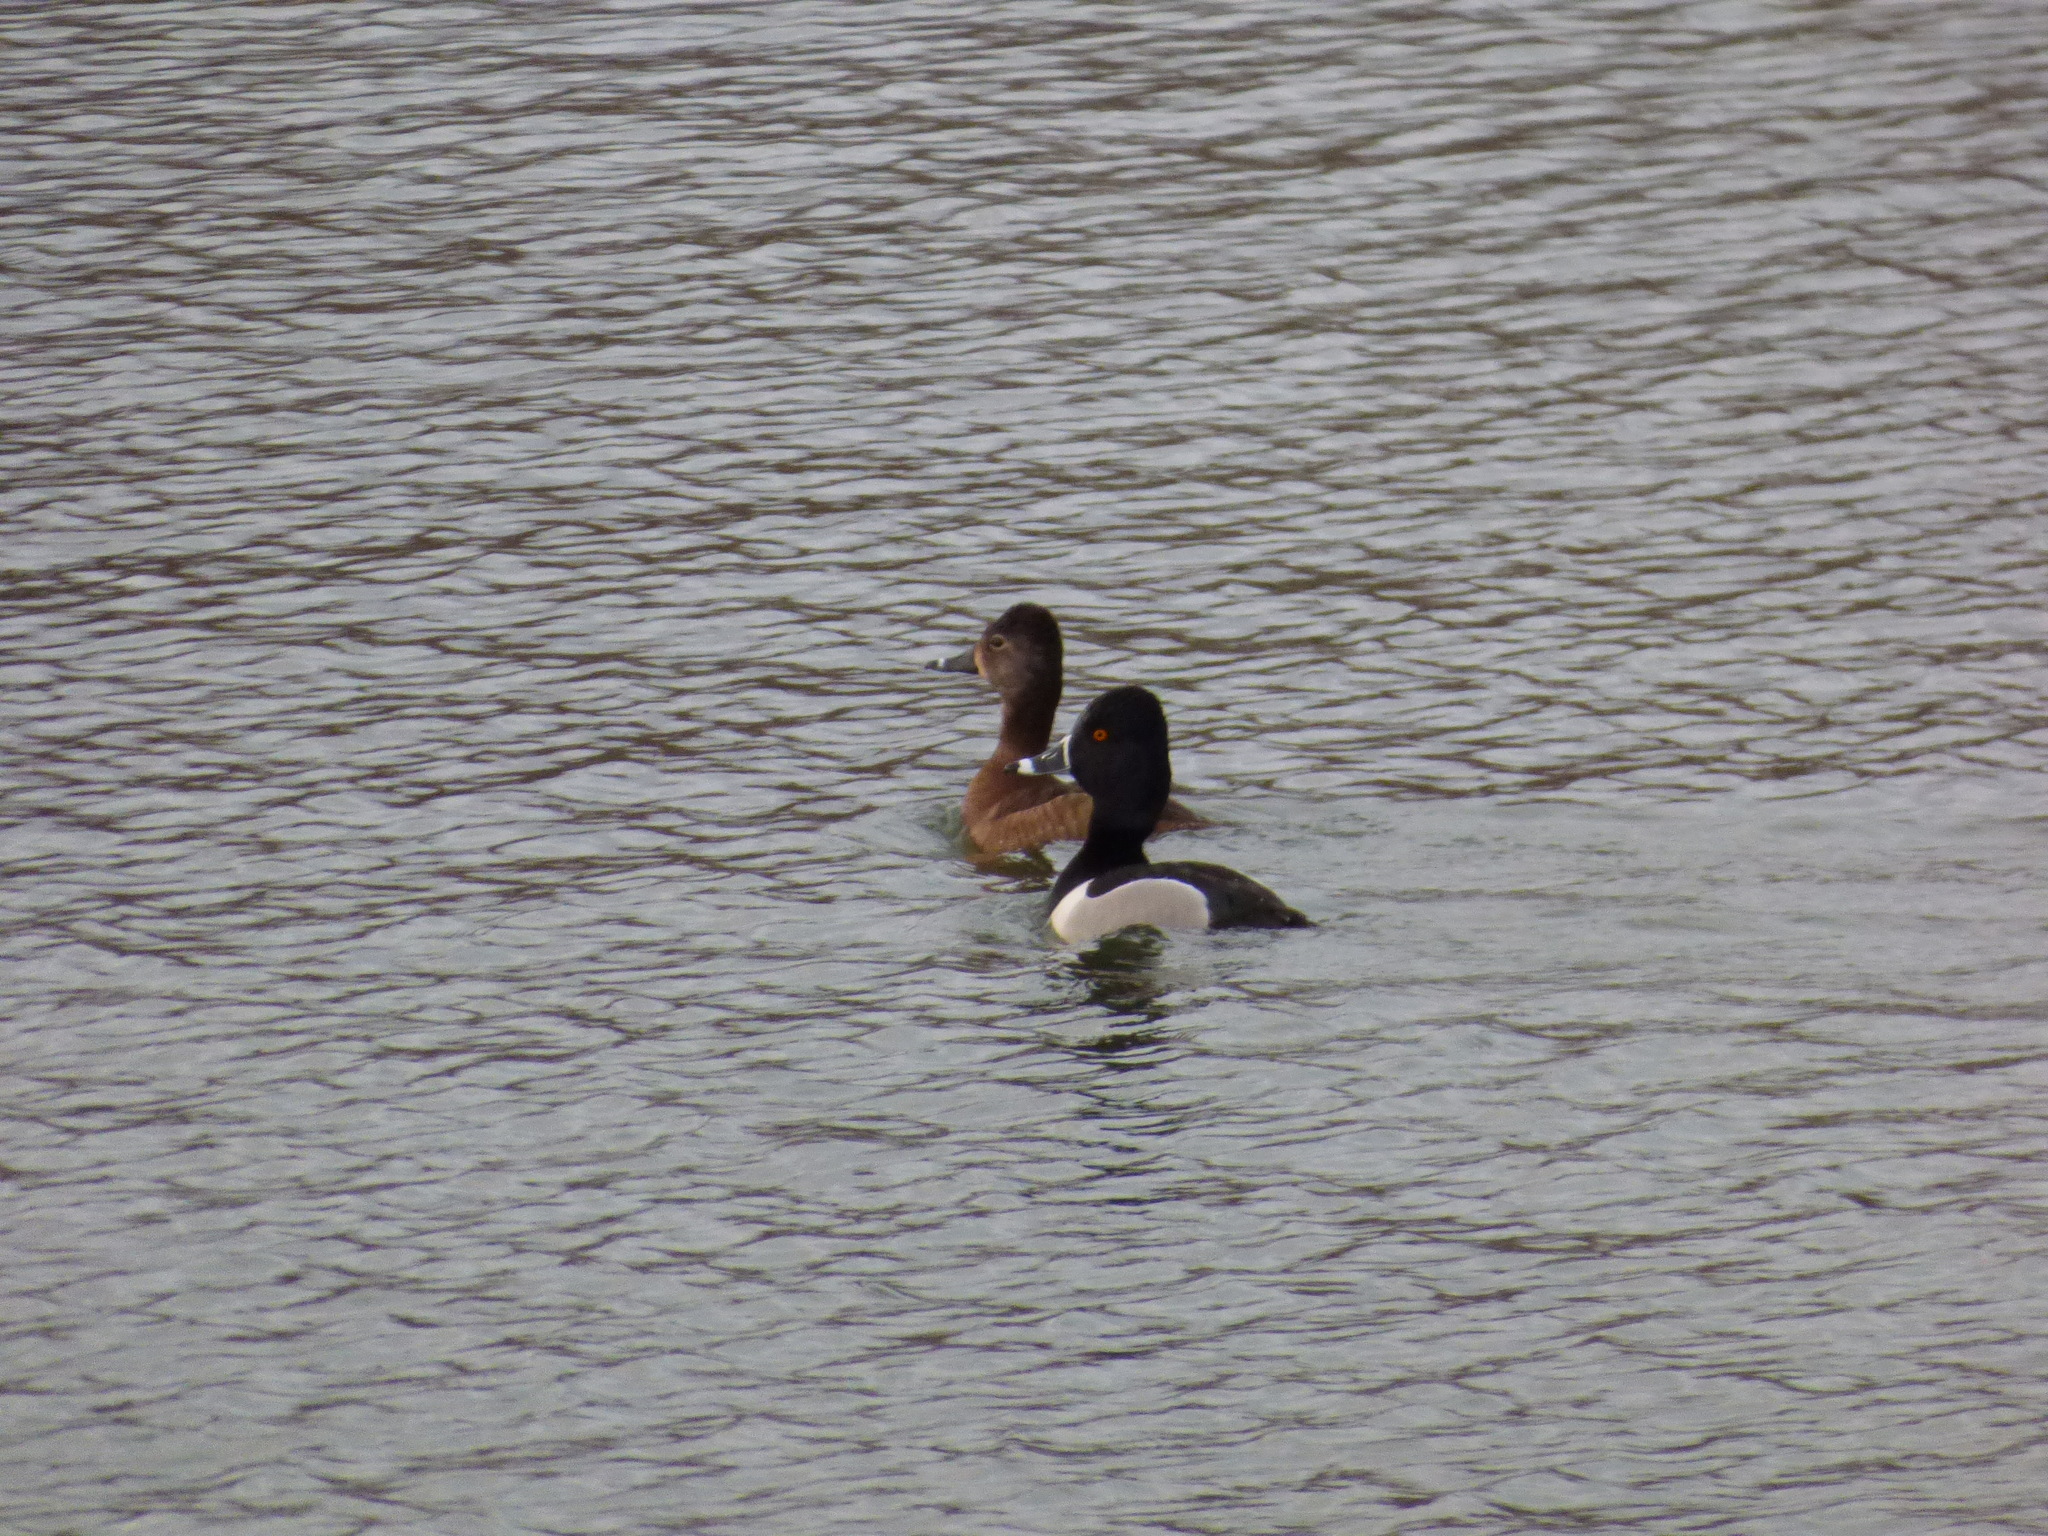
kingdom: Animalia
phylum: Chordata
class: Aves
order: Anseriformes
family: Anatidae
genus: Aythya
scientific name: Aythya collaris
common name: Ring-necked duck
